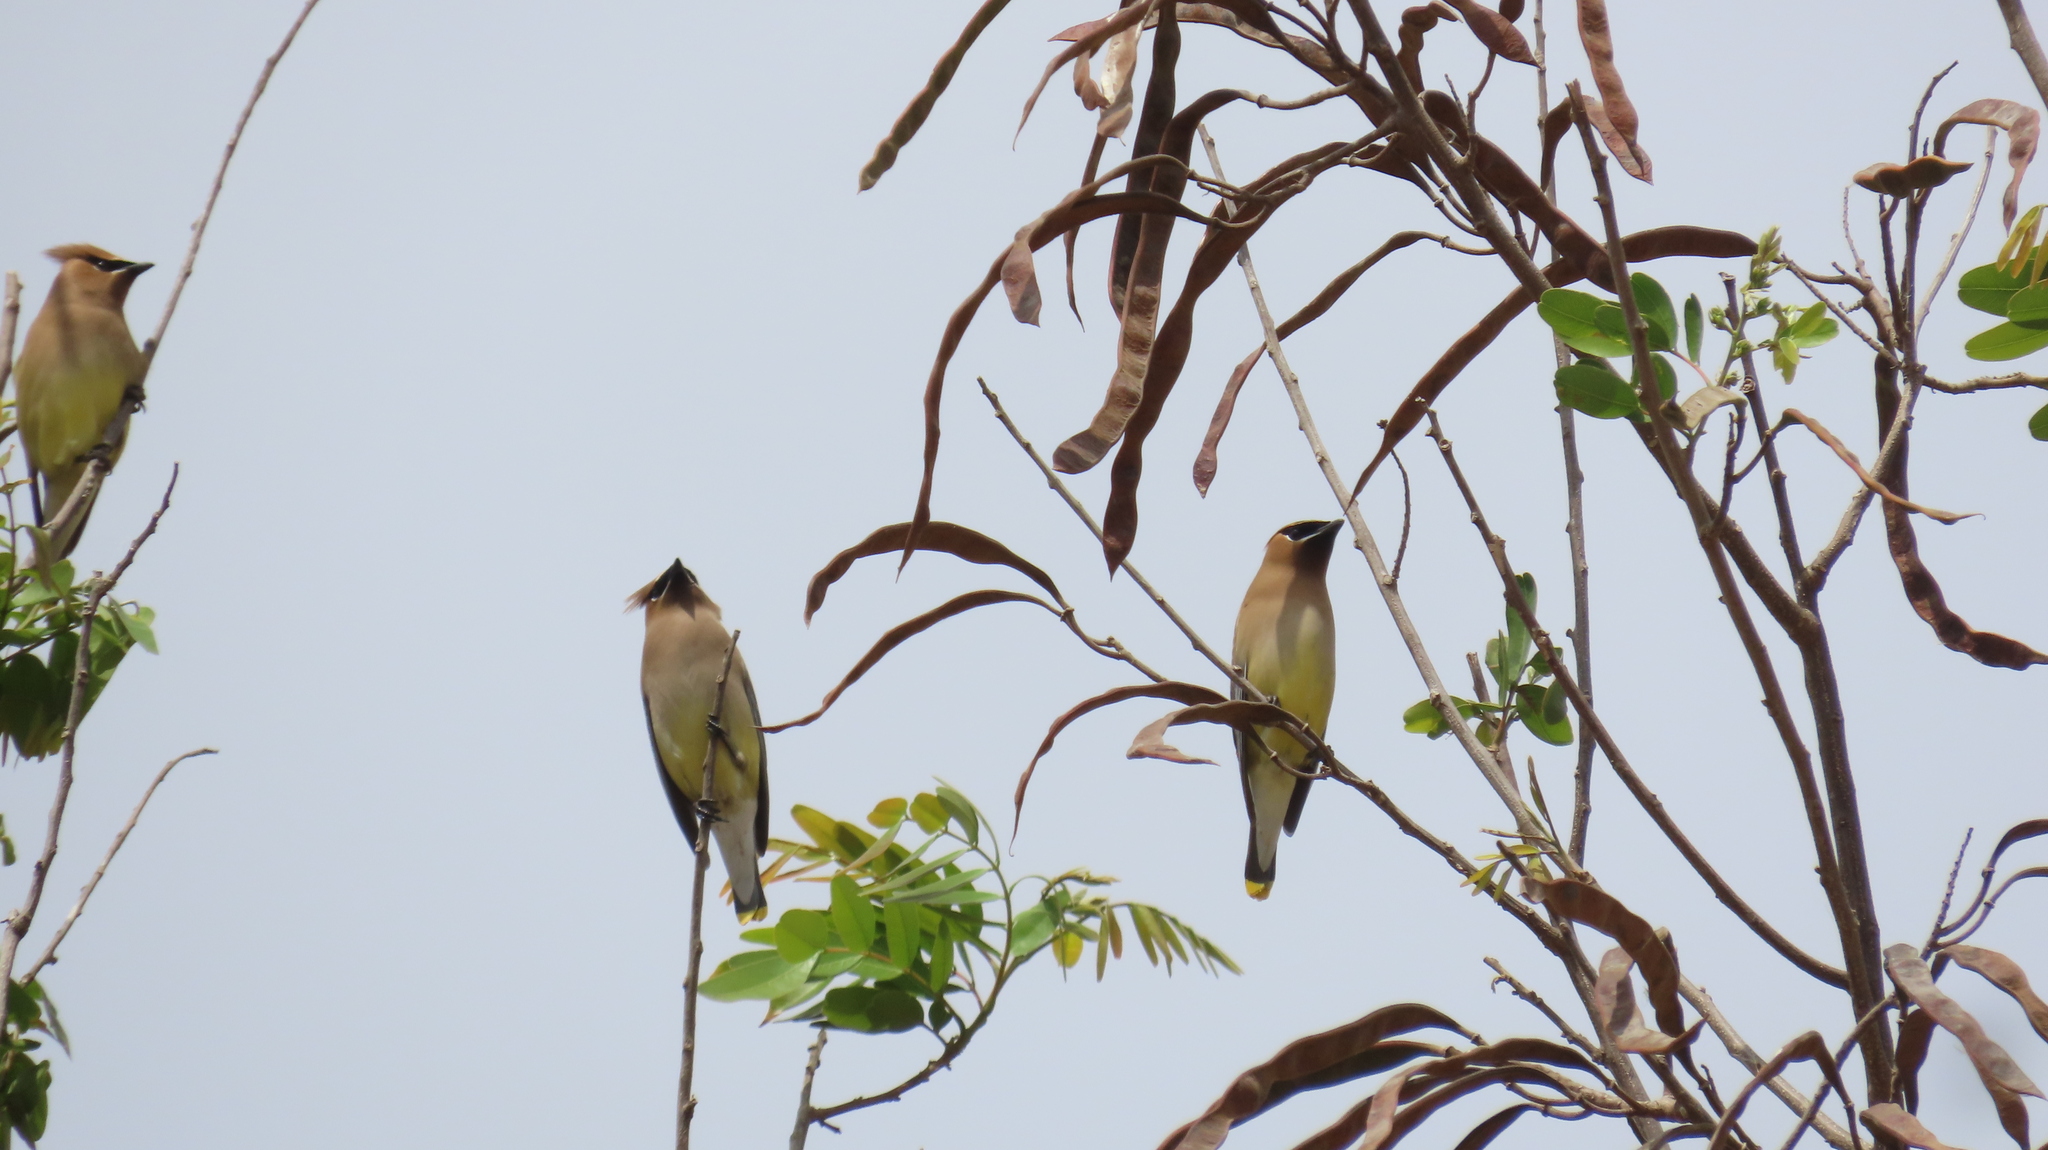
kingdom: Animalia
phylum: Chordata
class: Aves
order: Passeriformes
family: Bombycillidae
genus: Bombycilla
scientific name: Bombycilla cedrorum
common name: Cedar waxwing
